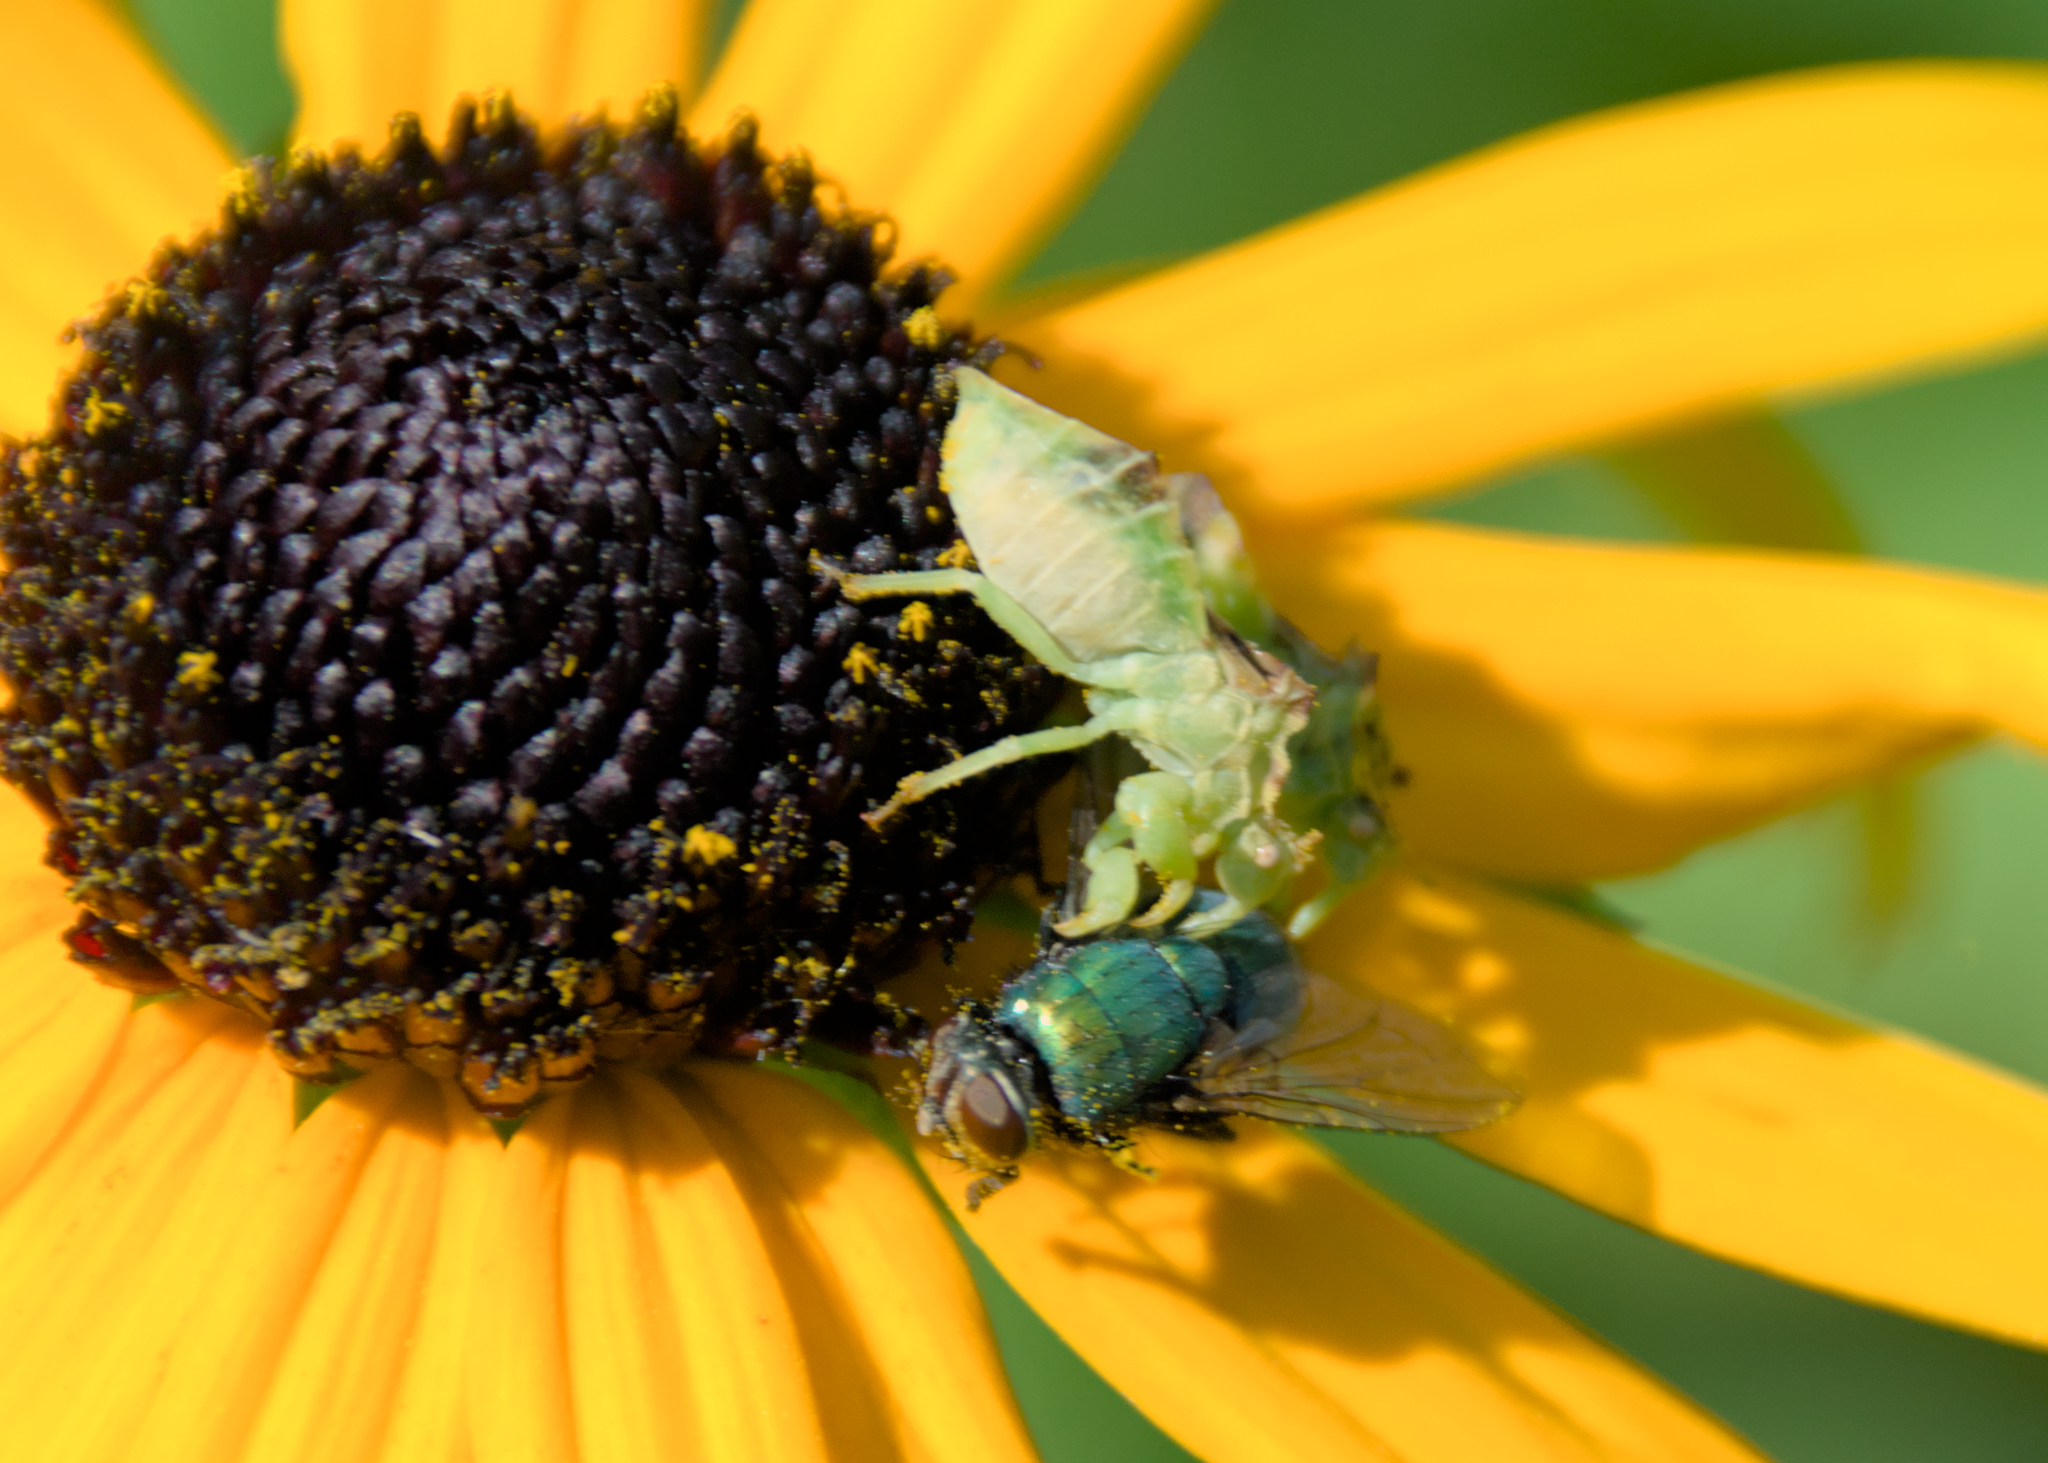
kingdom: Animalia
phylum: Arthropoda
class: Insecta
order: Hemiptera
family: Reduviidae
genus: Phymata
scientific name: Phymata americana
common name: Jagged ambush bug
